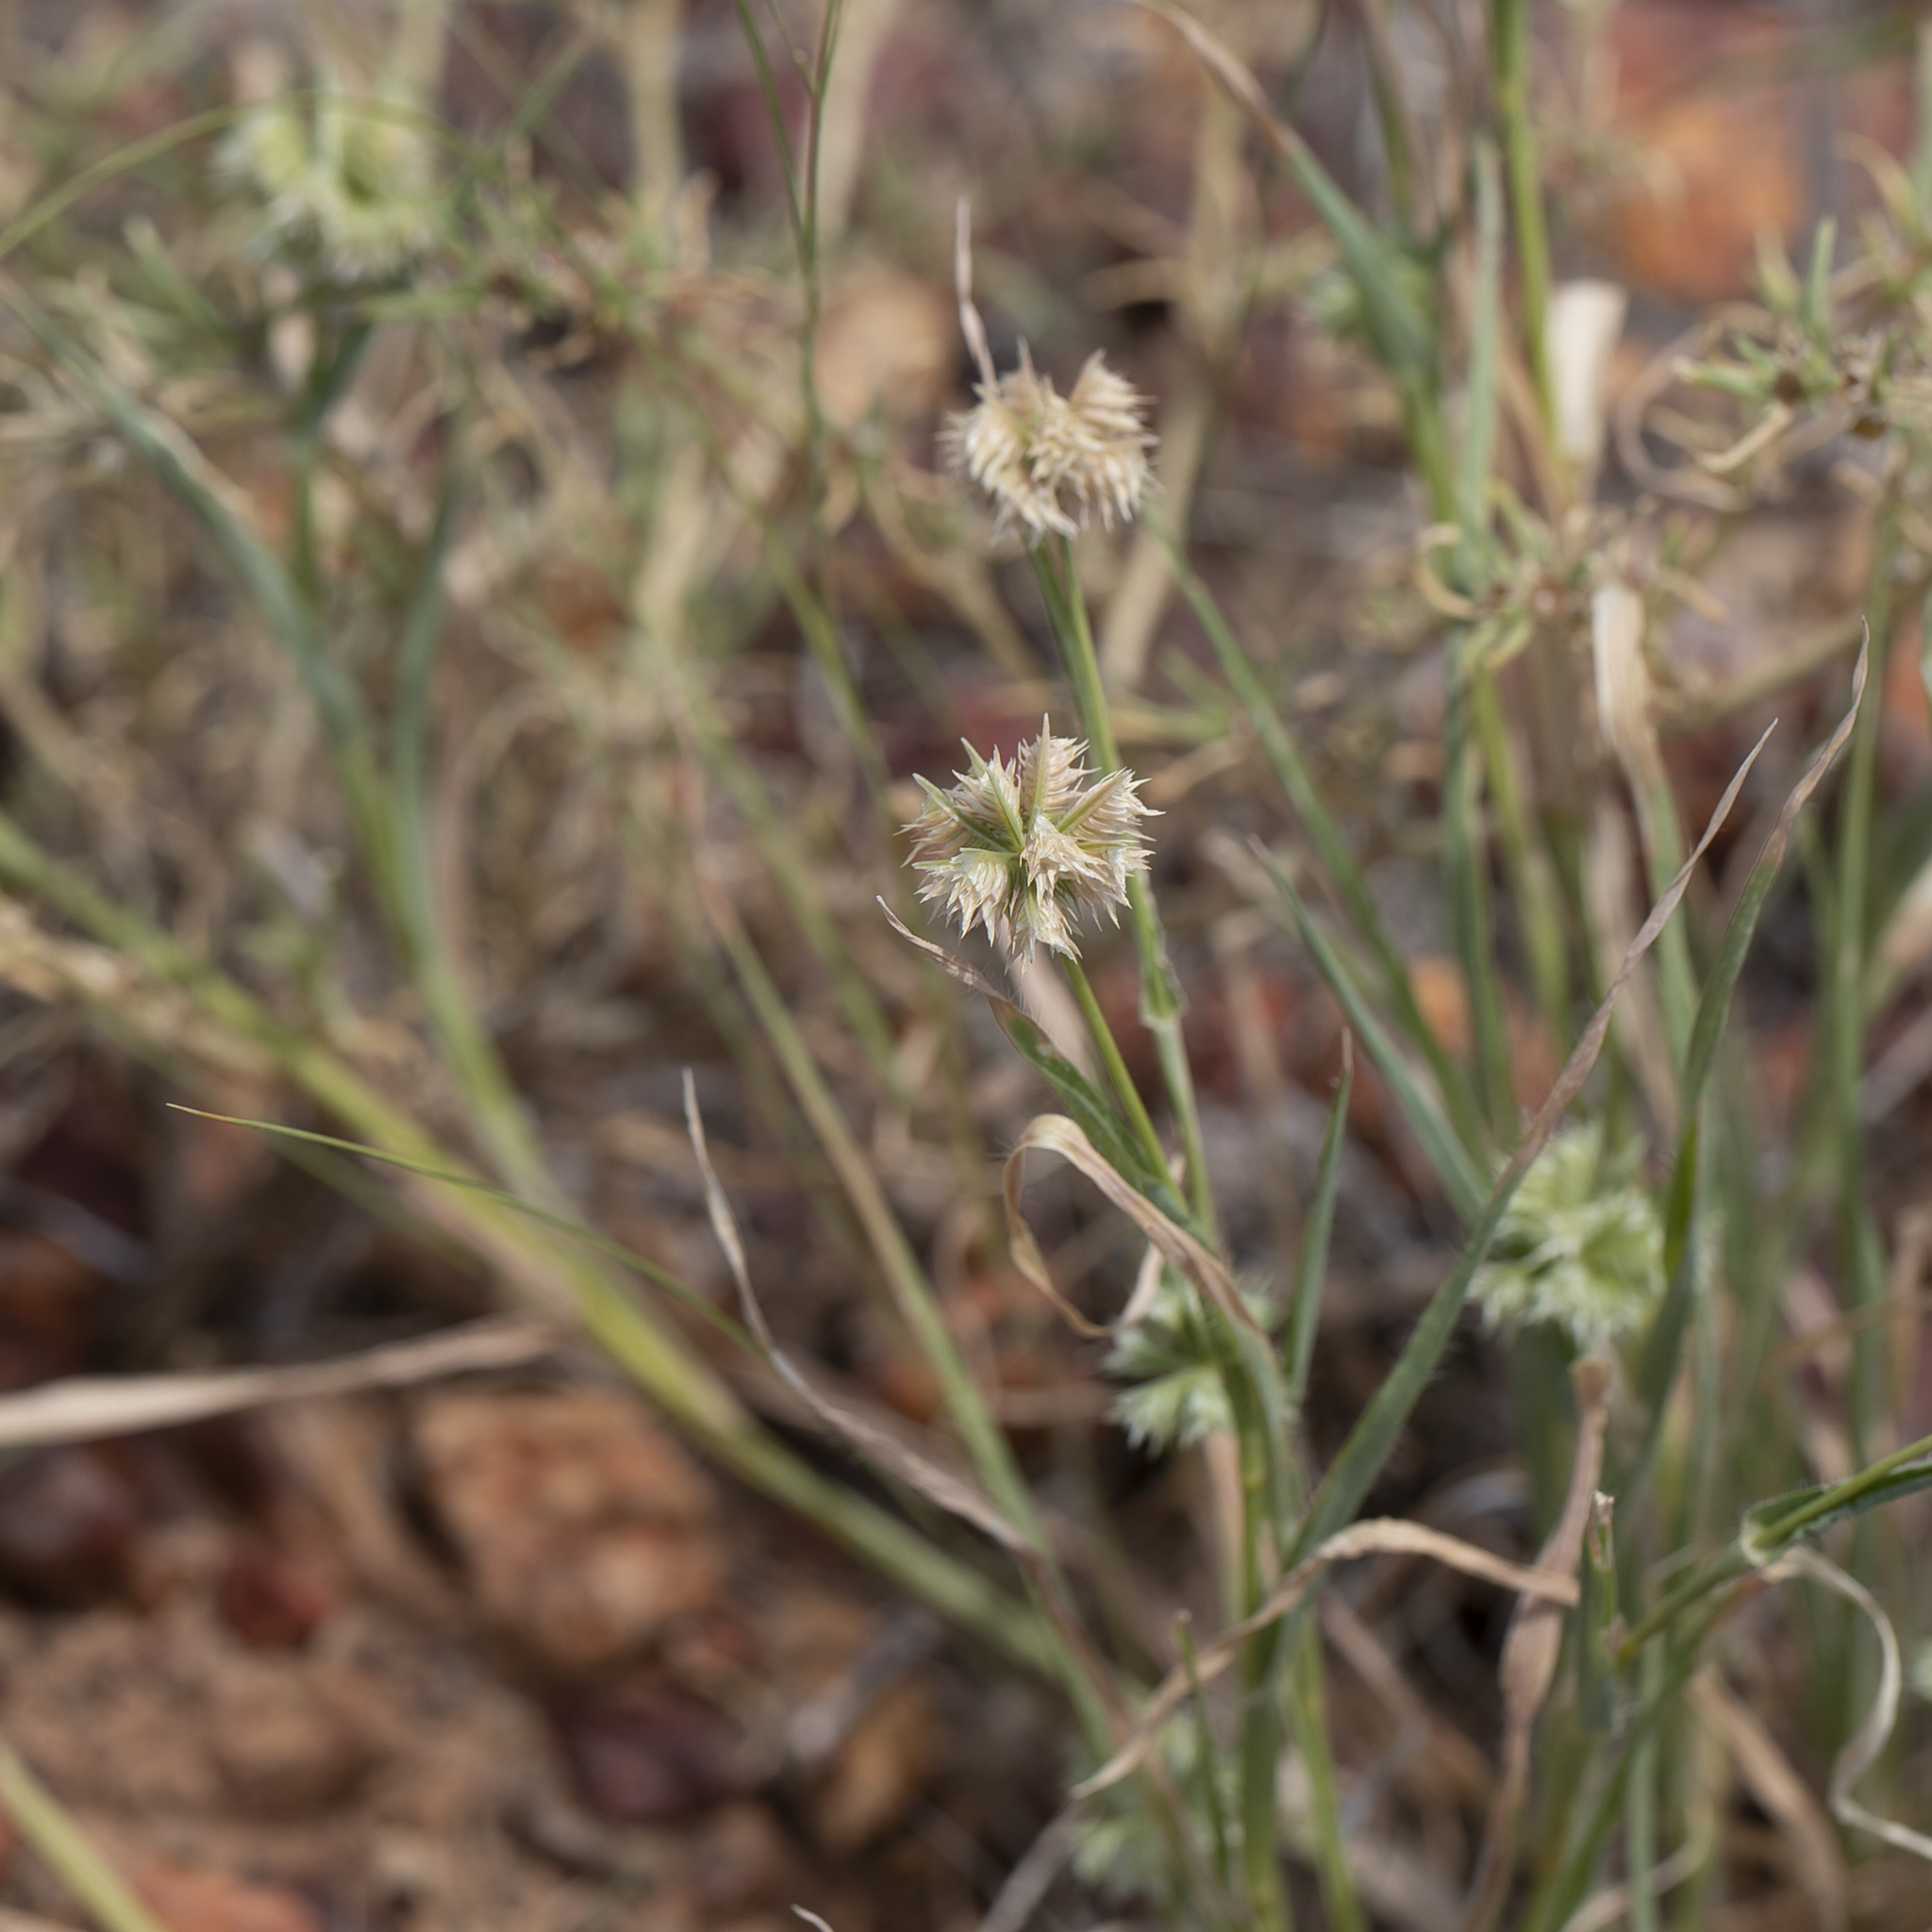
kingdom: Plantae
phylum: Tracheophyta
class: Liliopsida
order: Poales
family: Poaceae
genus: Dactyloctenium
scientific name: Dactyloctenium radulans
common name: Button-grass
